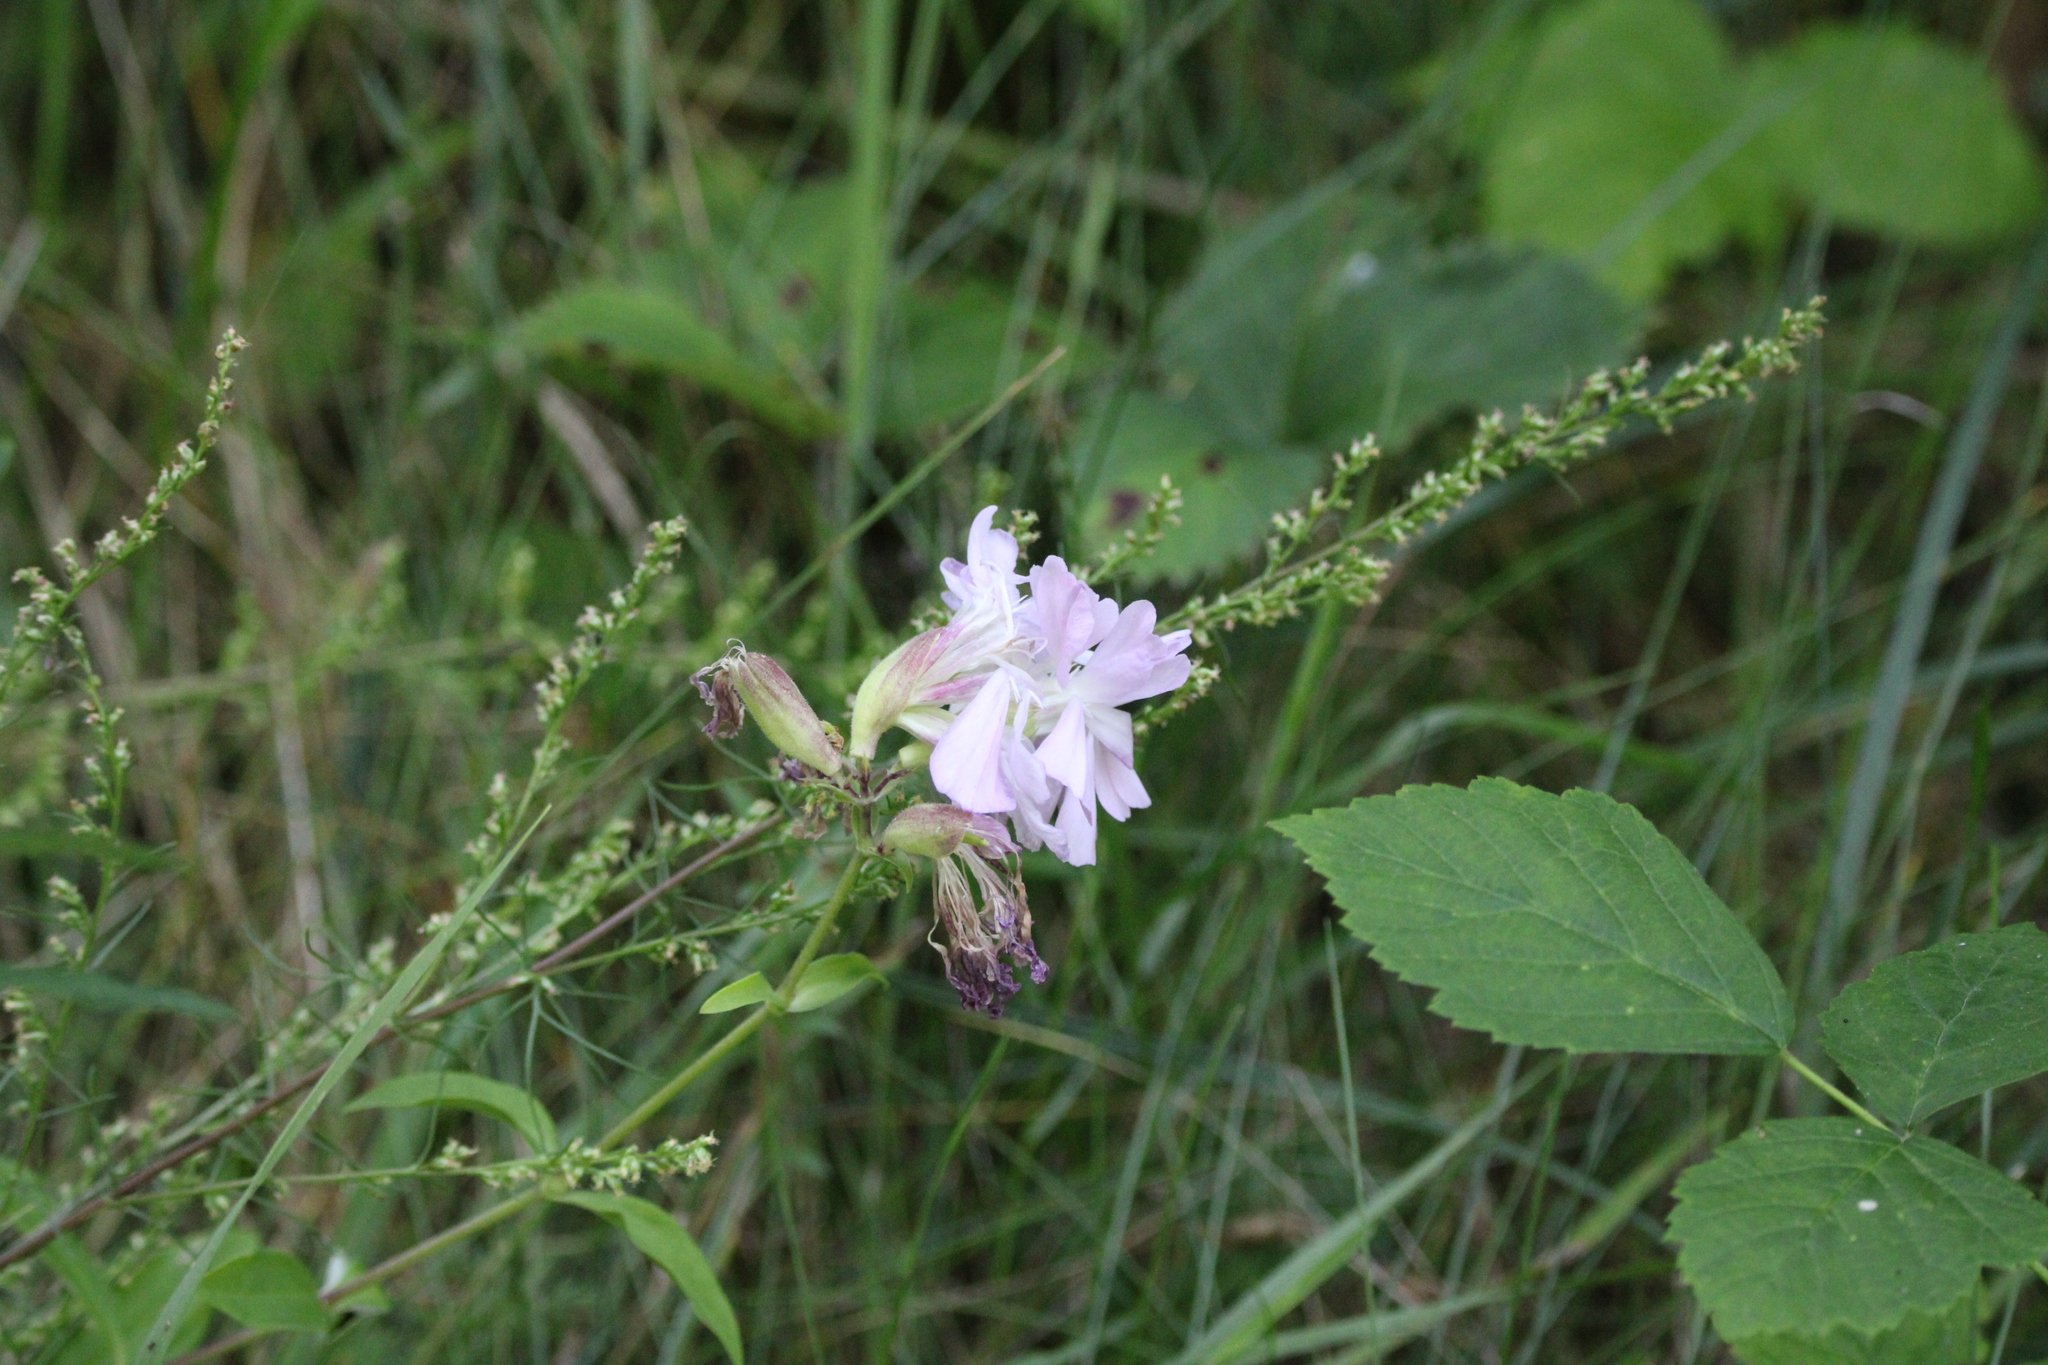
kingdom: Plantae
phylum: Tracheophyta
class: Magnoliopsida
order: Caryophyllales
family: Caryophyllaceae
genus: Saponaria
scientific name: Saponaria officinalis
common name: Soapwort
